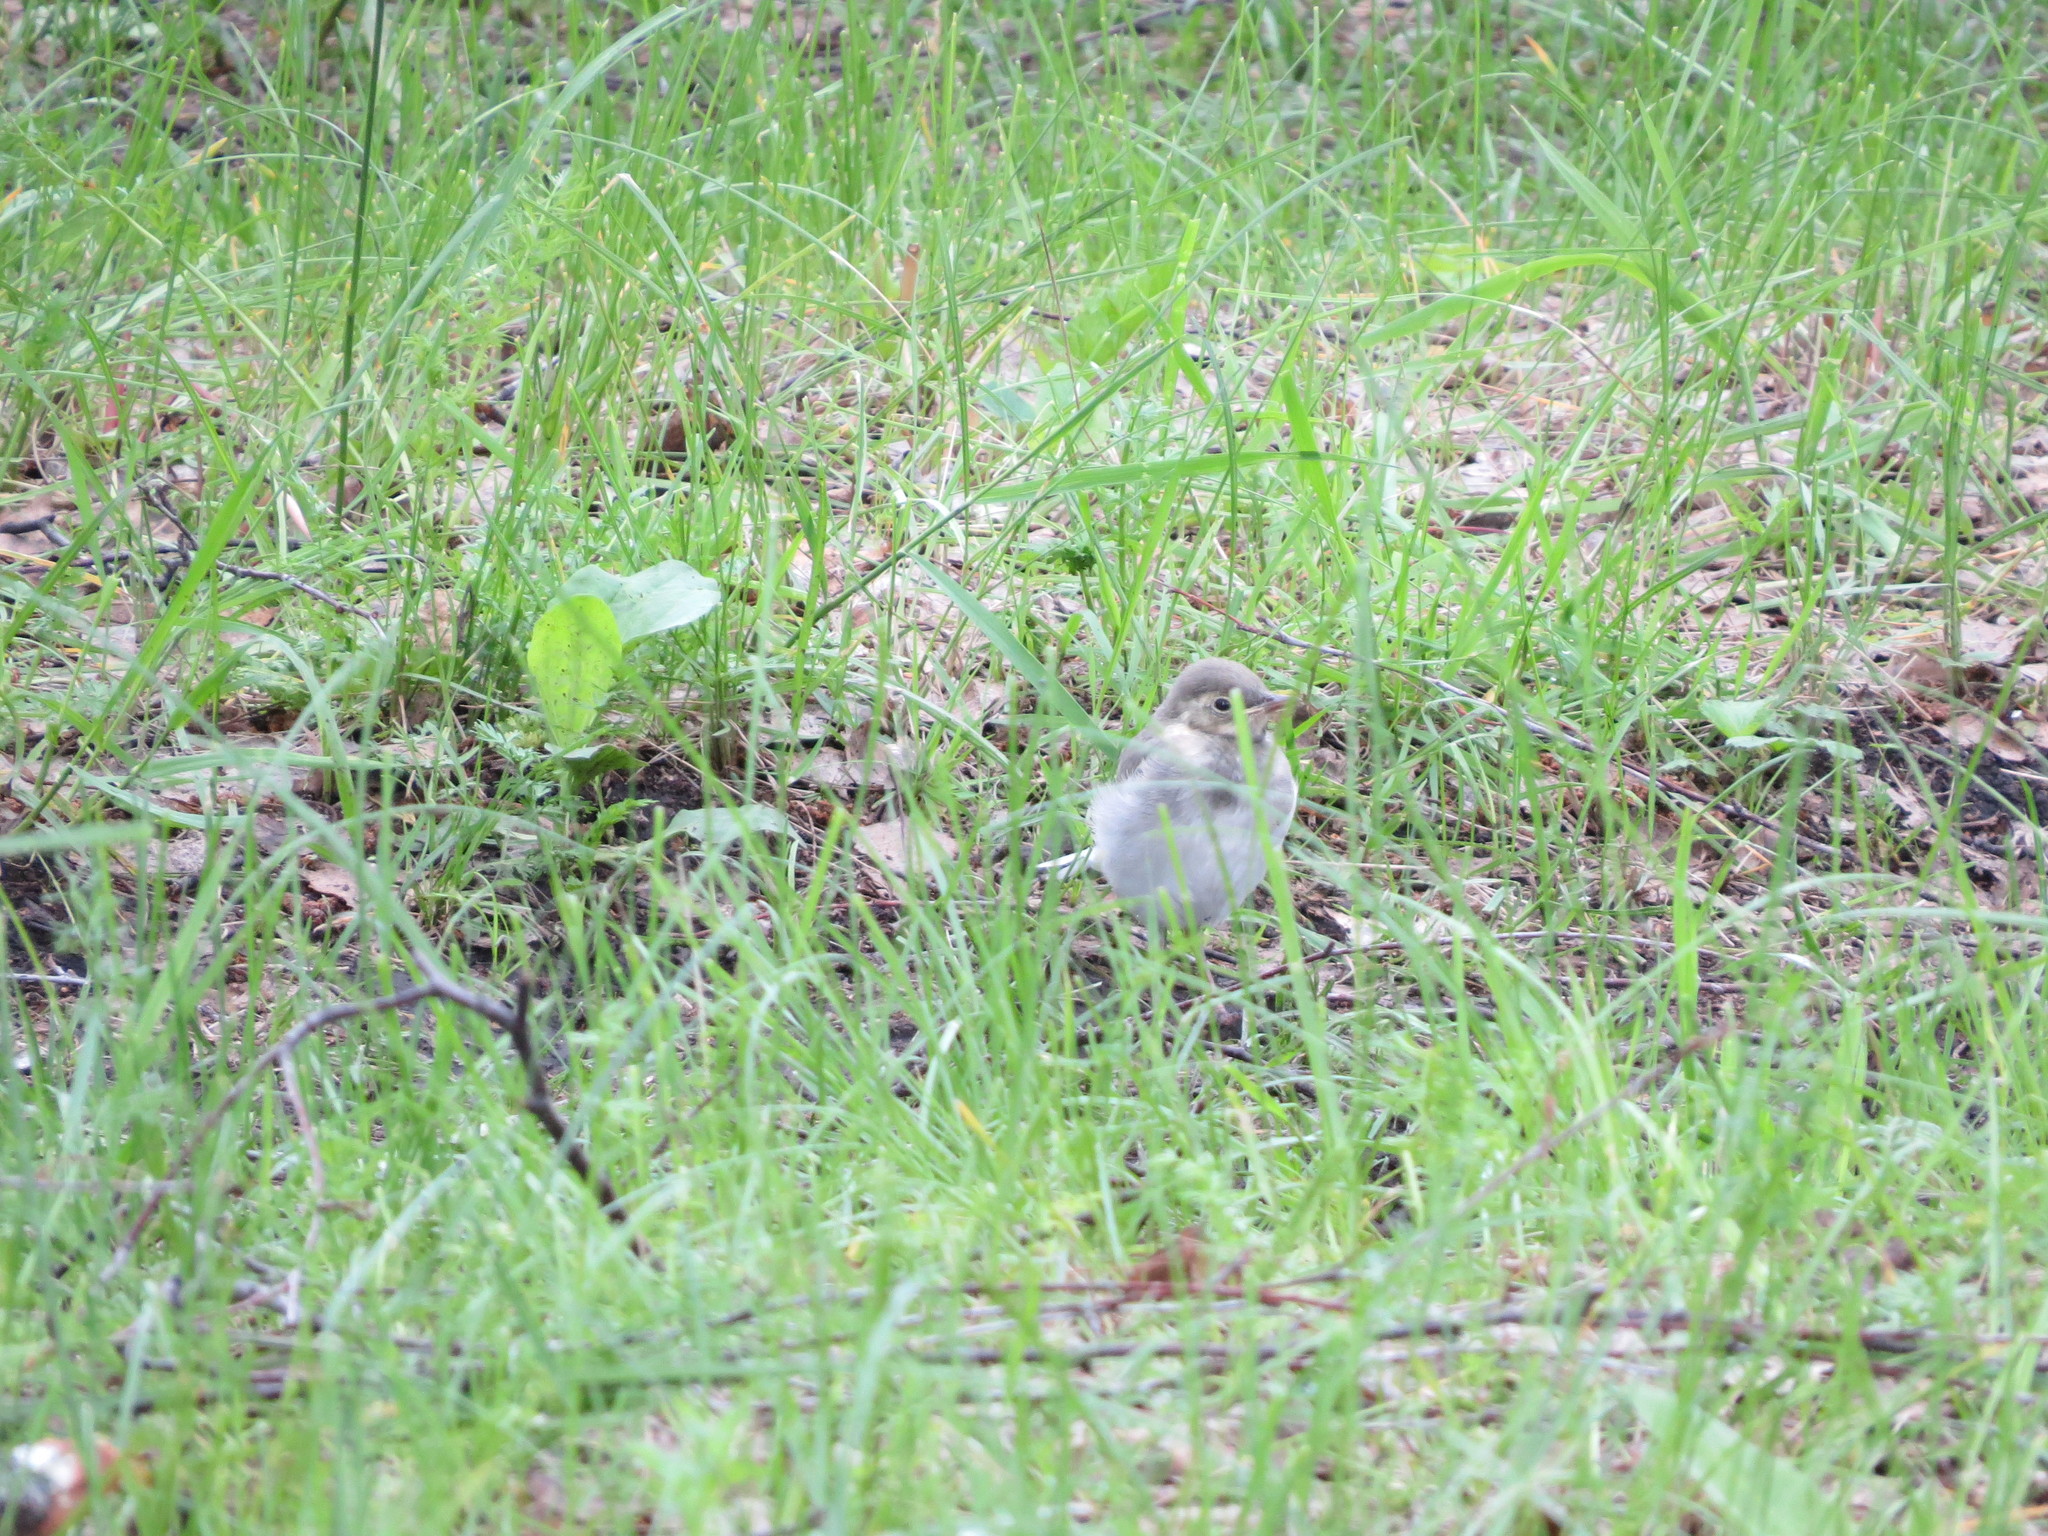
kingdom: Animalia
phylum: Chordata
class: Aves
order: Passeriformes
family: Motacillidae
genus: Motacilla
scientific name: Motacilla alba
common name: White wagtail
